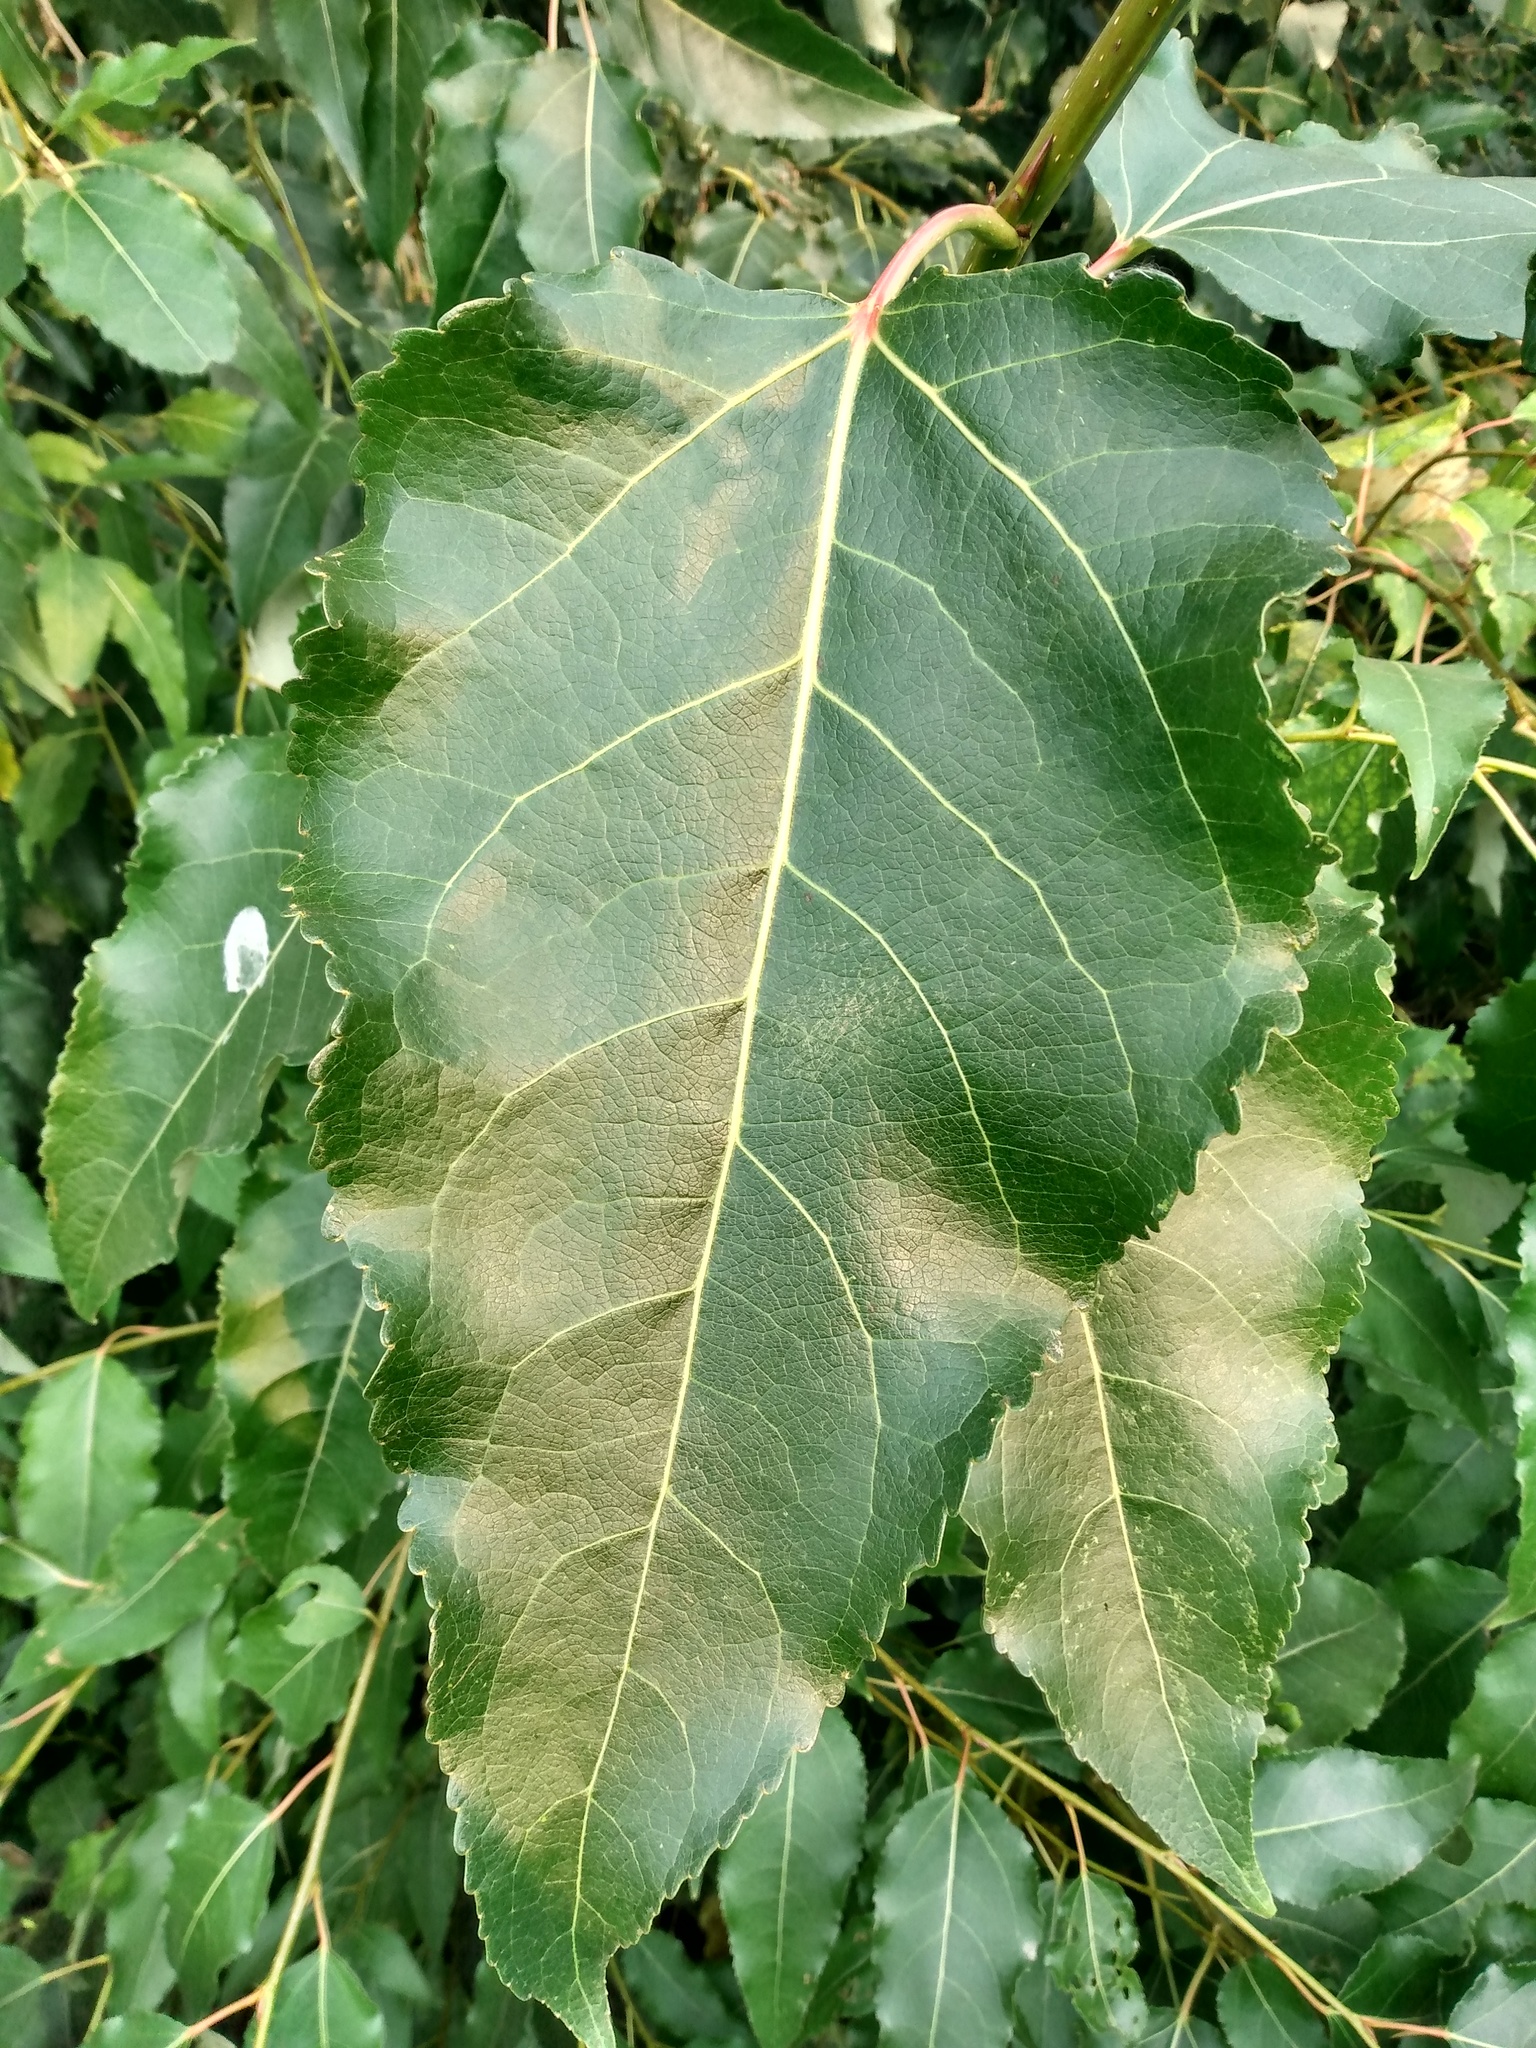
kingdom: Plantae
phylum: Tracheophyta
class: Magnoliopsida
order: Malpighiales
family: Salicaceae
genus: Populus
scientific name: Populus trichocarpa
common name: Black cottonwood
